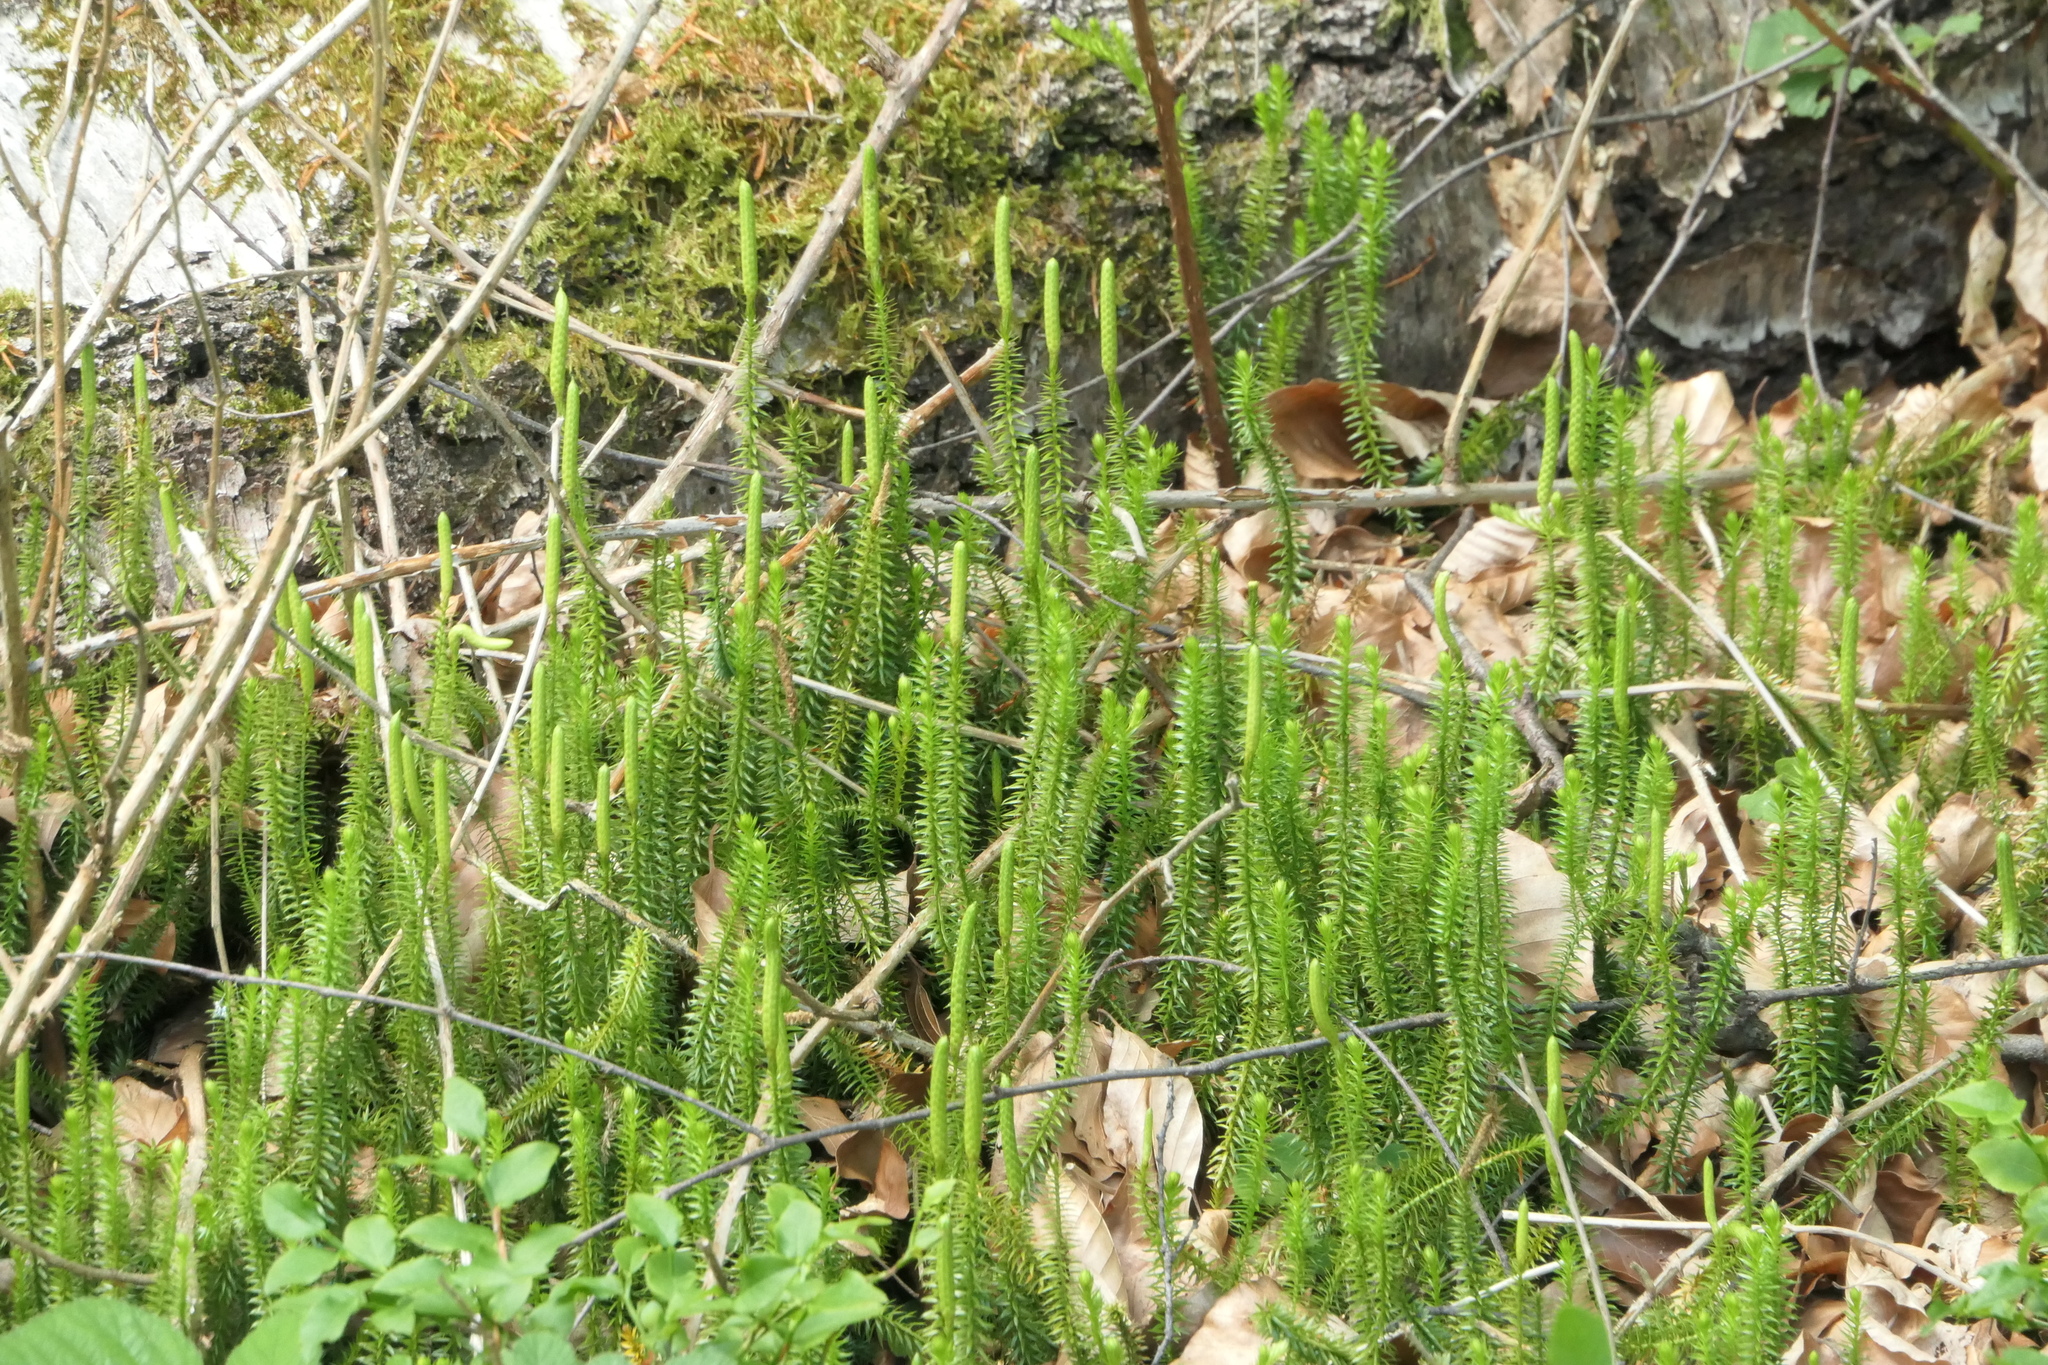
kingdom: Plantae
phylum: Tracheophyta
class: Lycopodiopsida
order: Lycopodiales
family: Lycopodiaceae
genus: Spinulum
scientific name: Spinulum annotinum
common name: Interrupted club-moss
